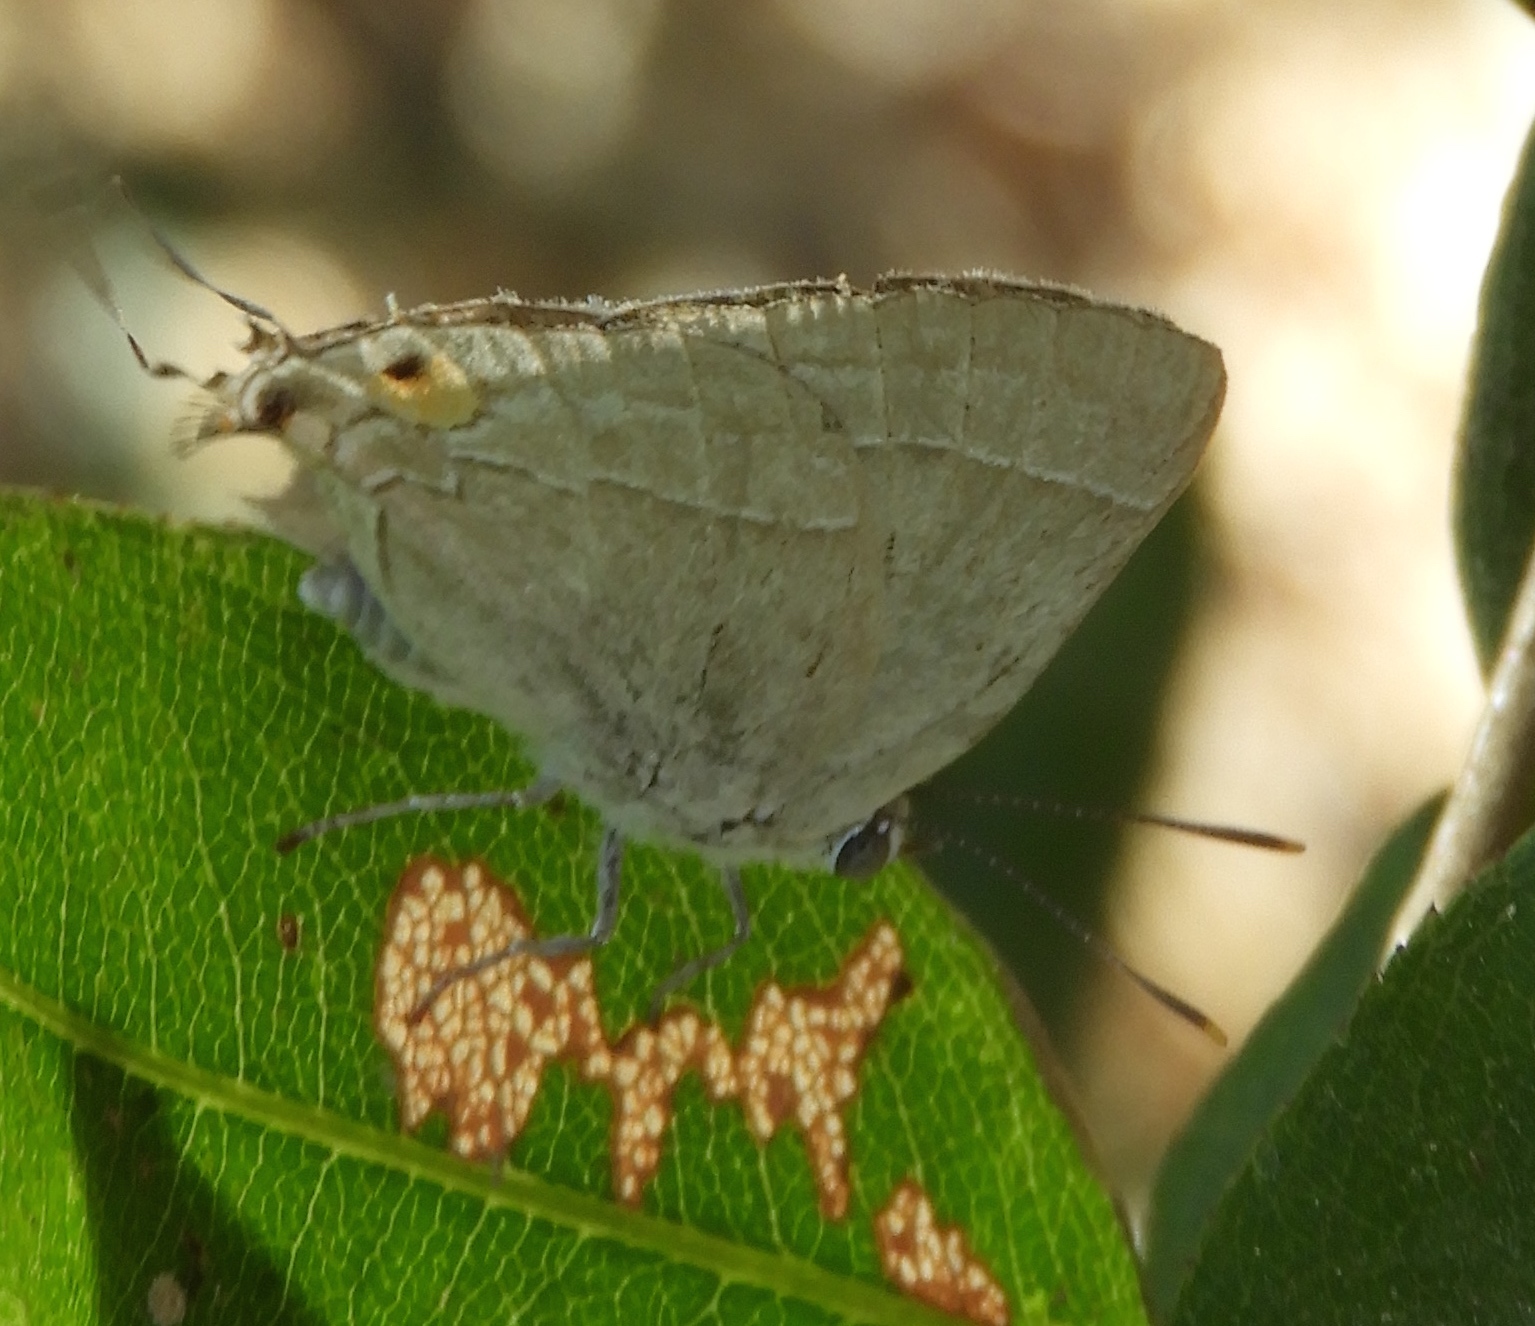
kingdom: Animalia
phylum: Arthropoda
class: Insecta
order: Lepidoptera
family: Lycaenidae
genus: Thecla
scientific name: Thecla marius
